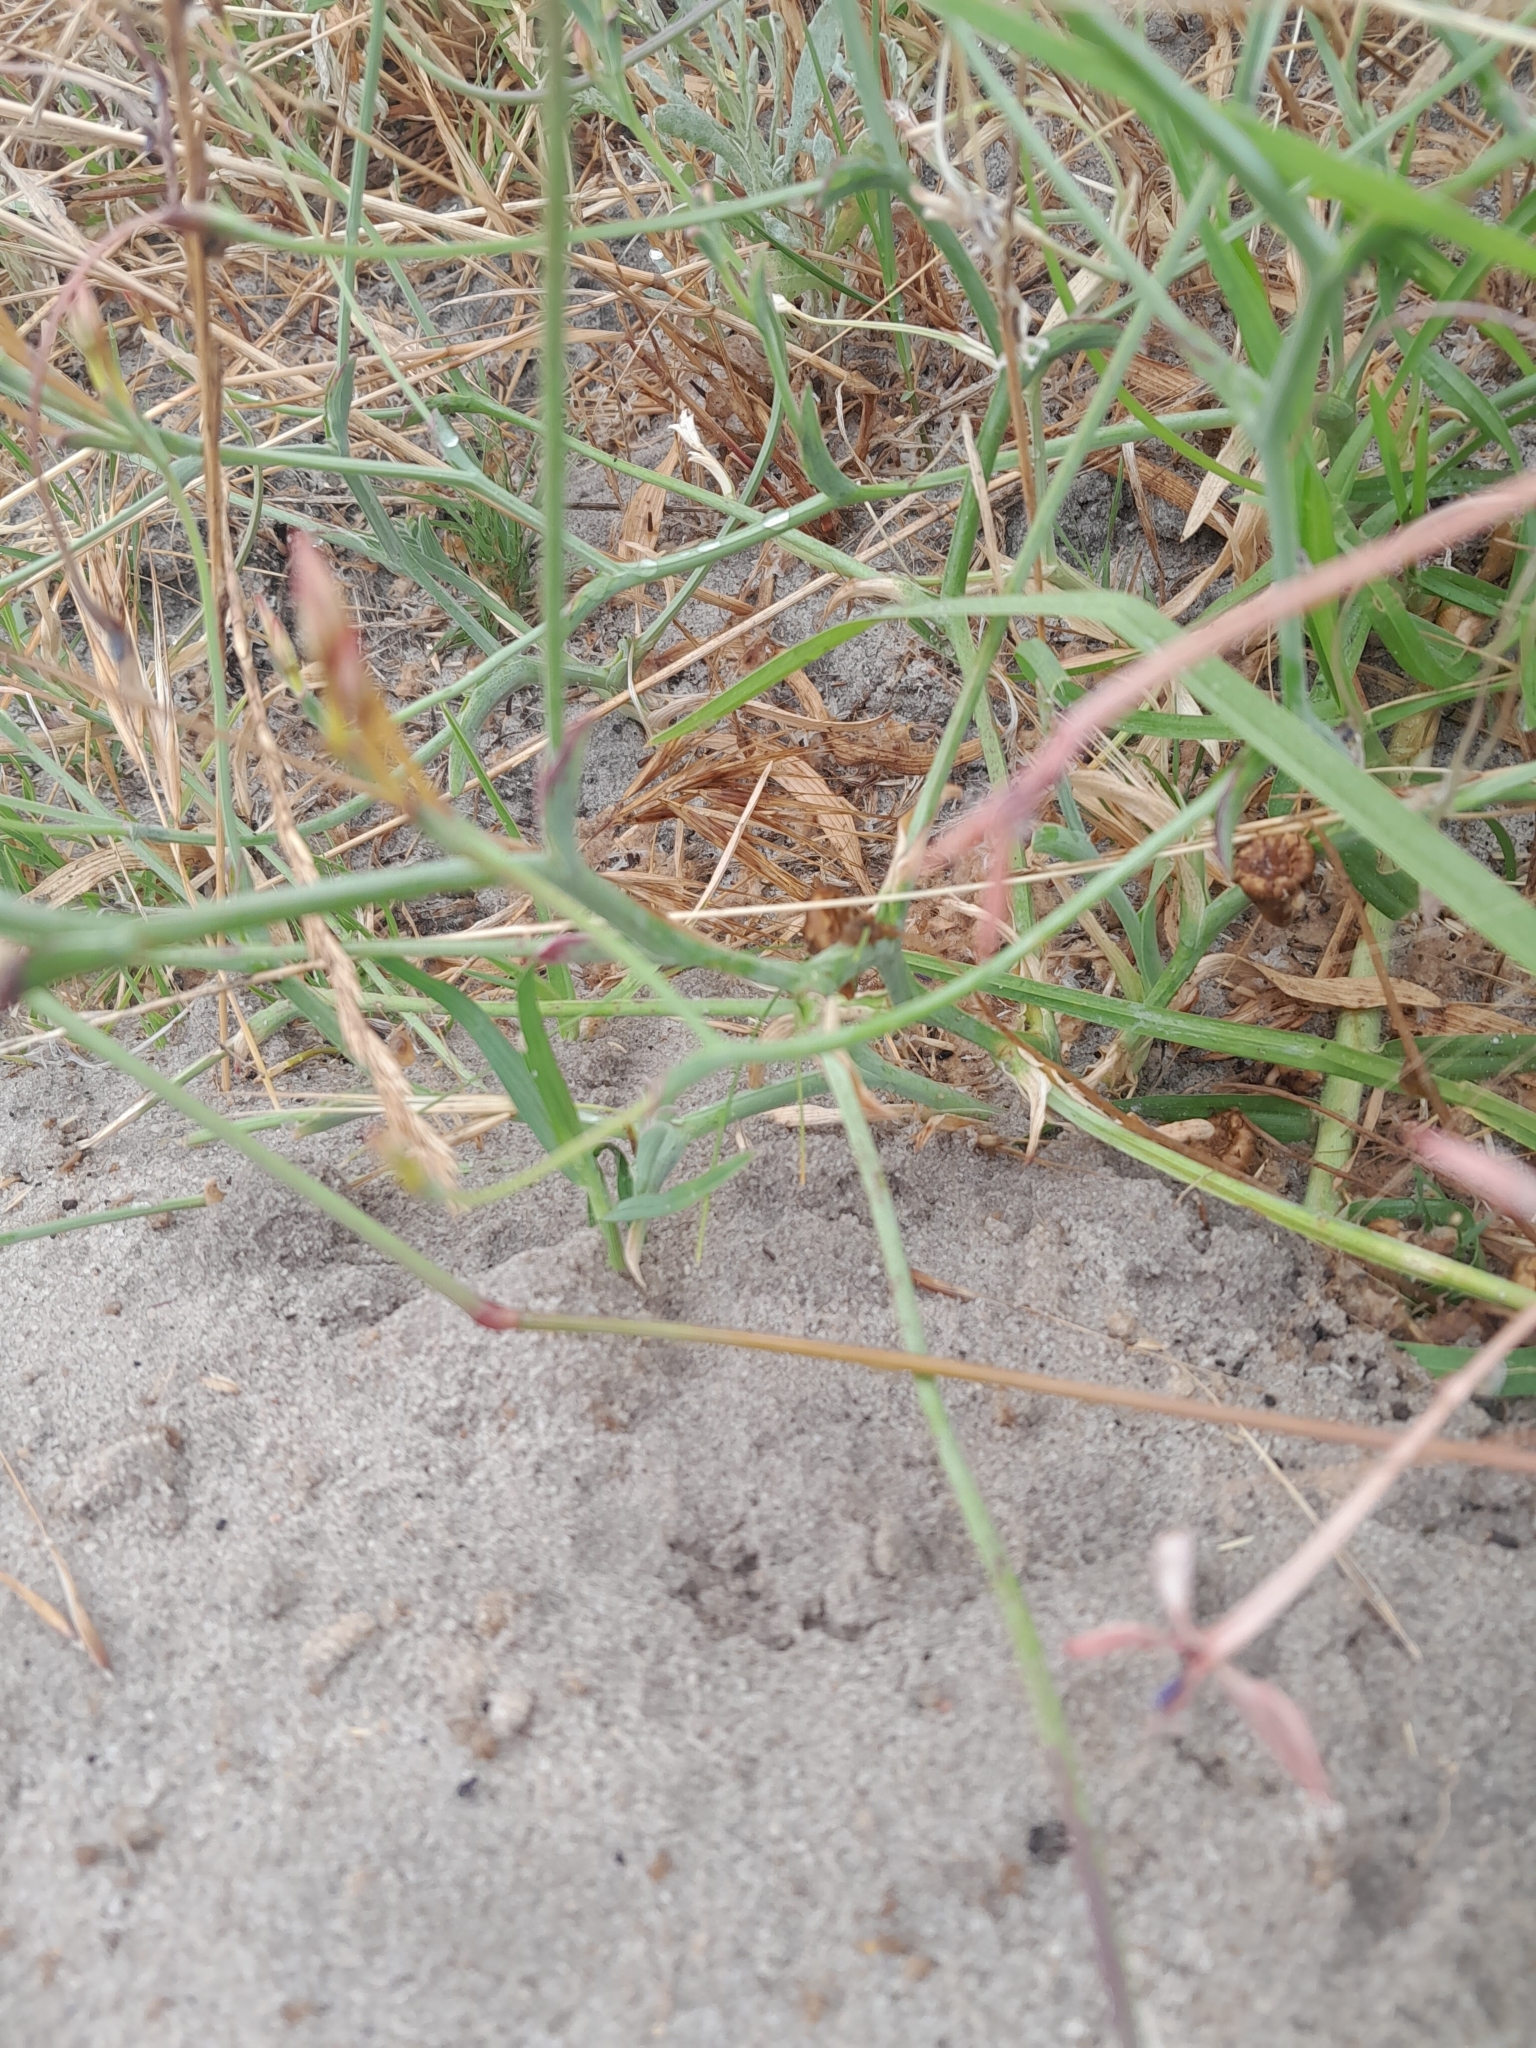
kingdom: Plantae
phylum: Tracheophyta
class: Liliopsida
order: Asparagales
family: Iridaceae
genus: Lapeirousia
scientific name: Lapeirousia anceps
